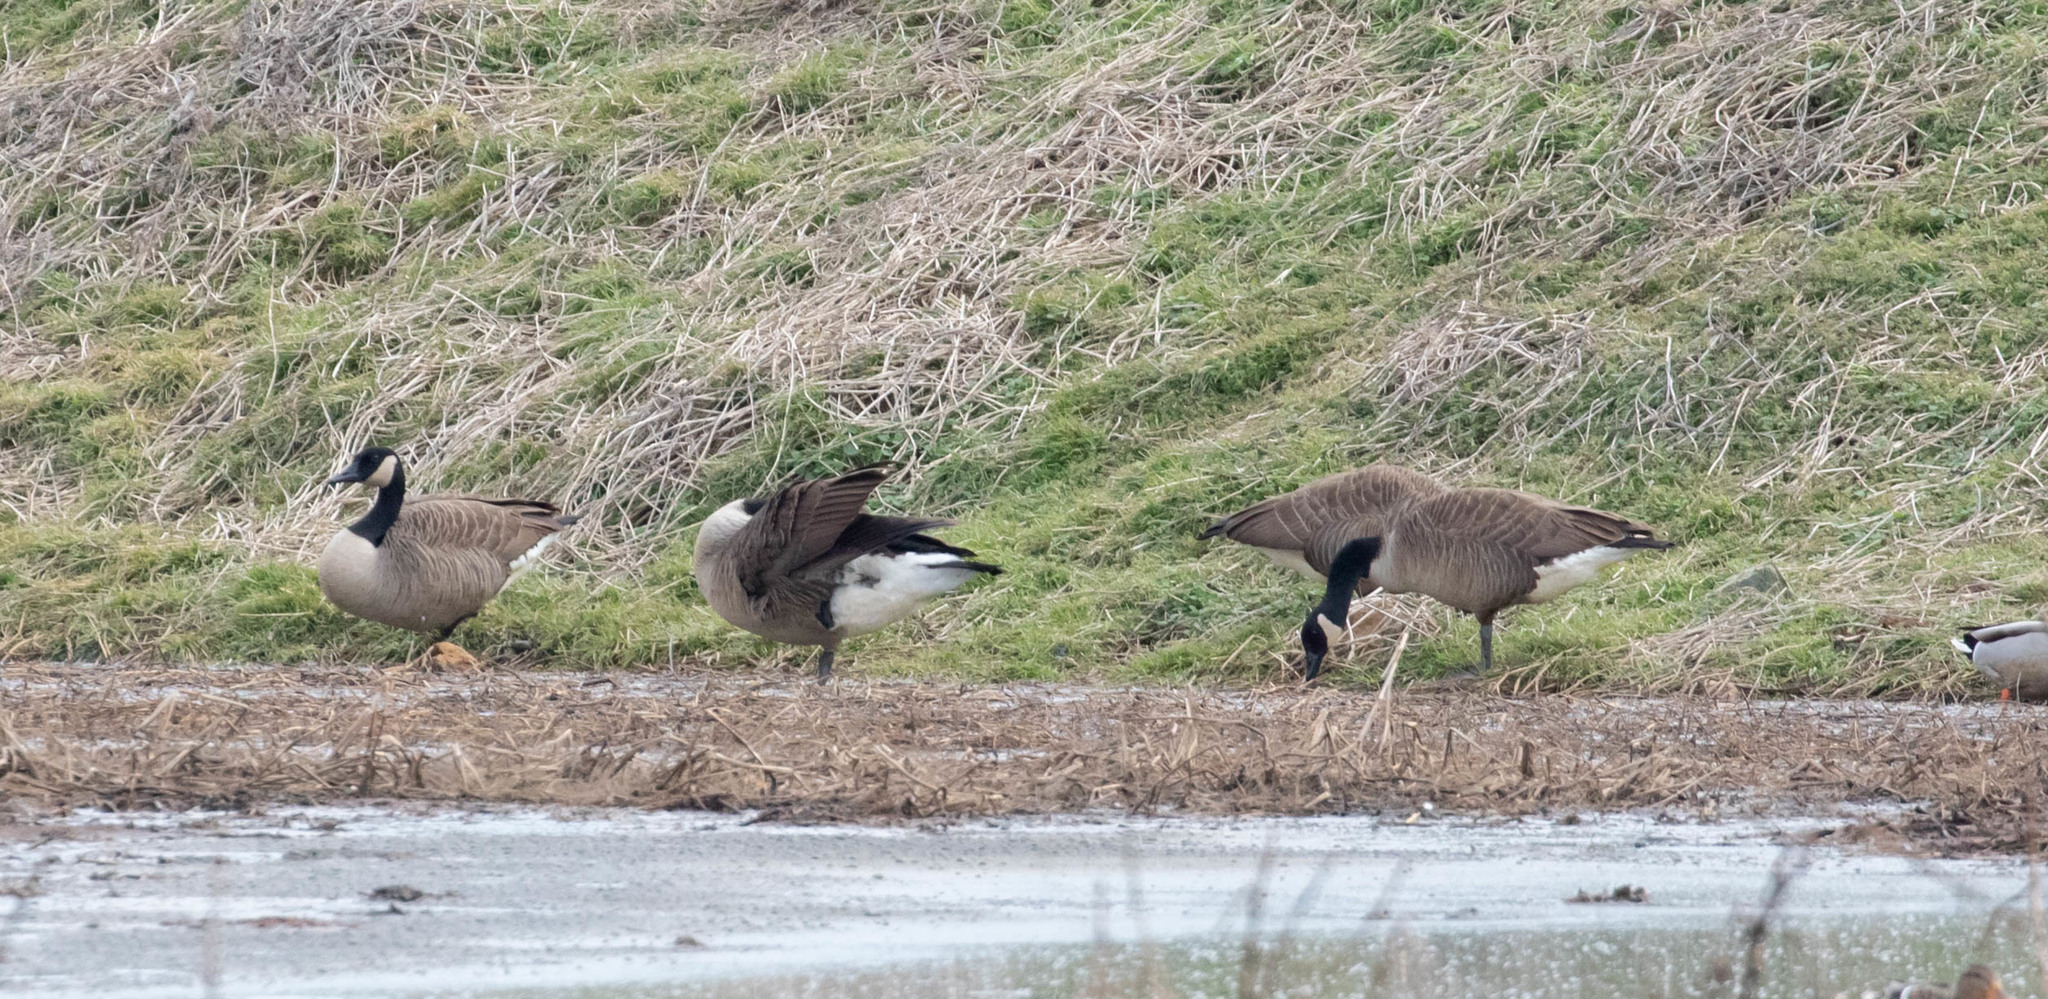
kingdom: Animalia
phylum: Chordata
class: Aves
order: Anseriformes
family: Anatidae
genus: Branta
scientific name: Branta canadensis
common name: Canada goose
